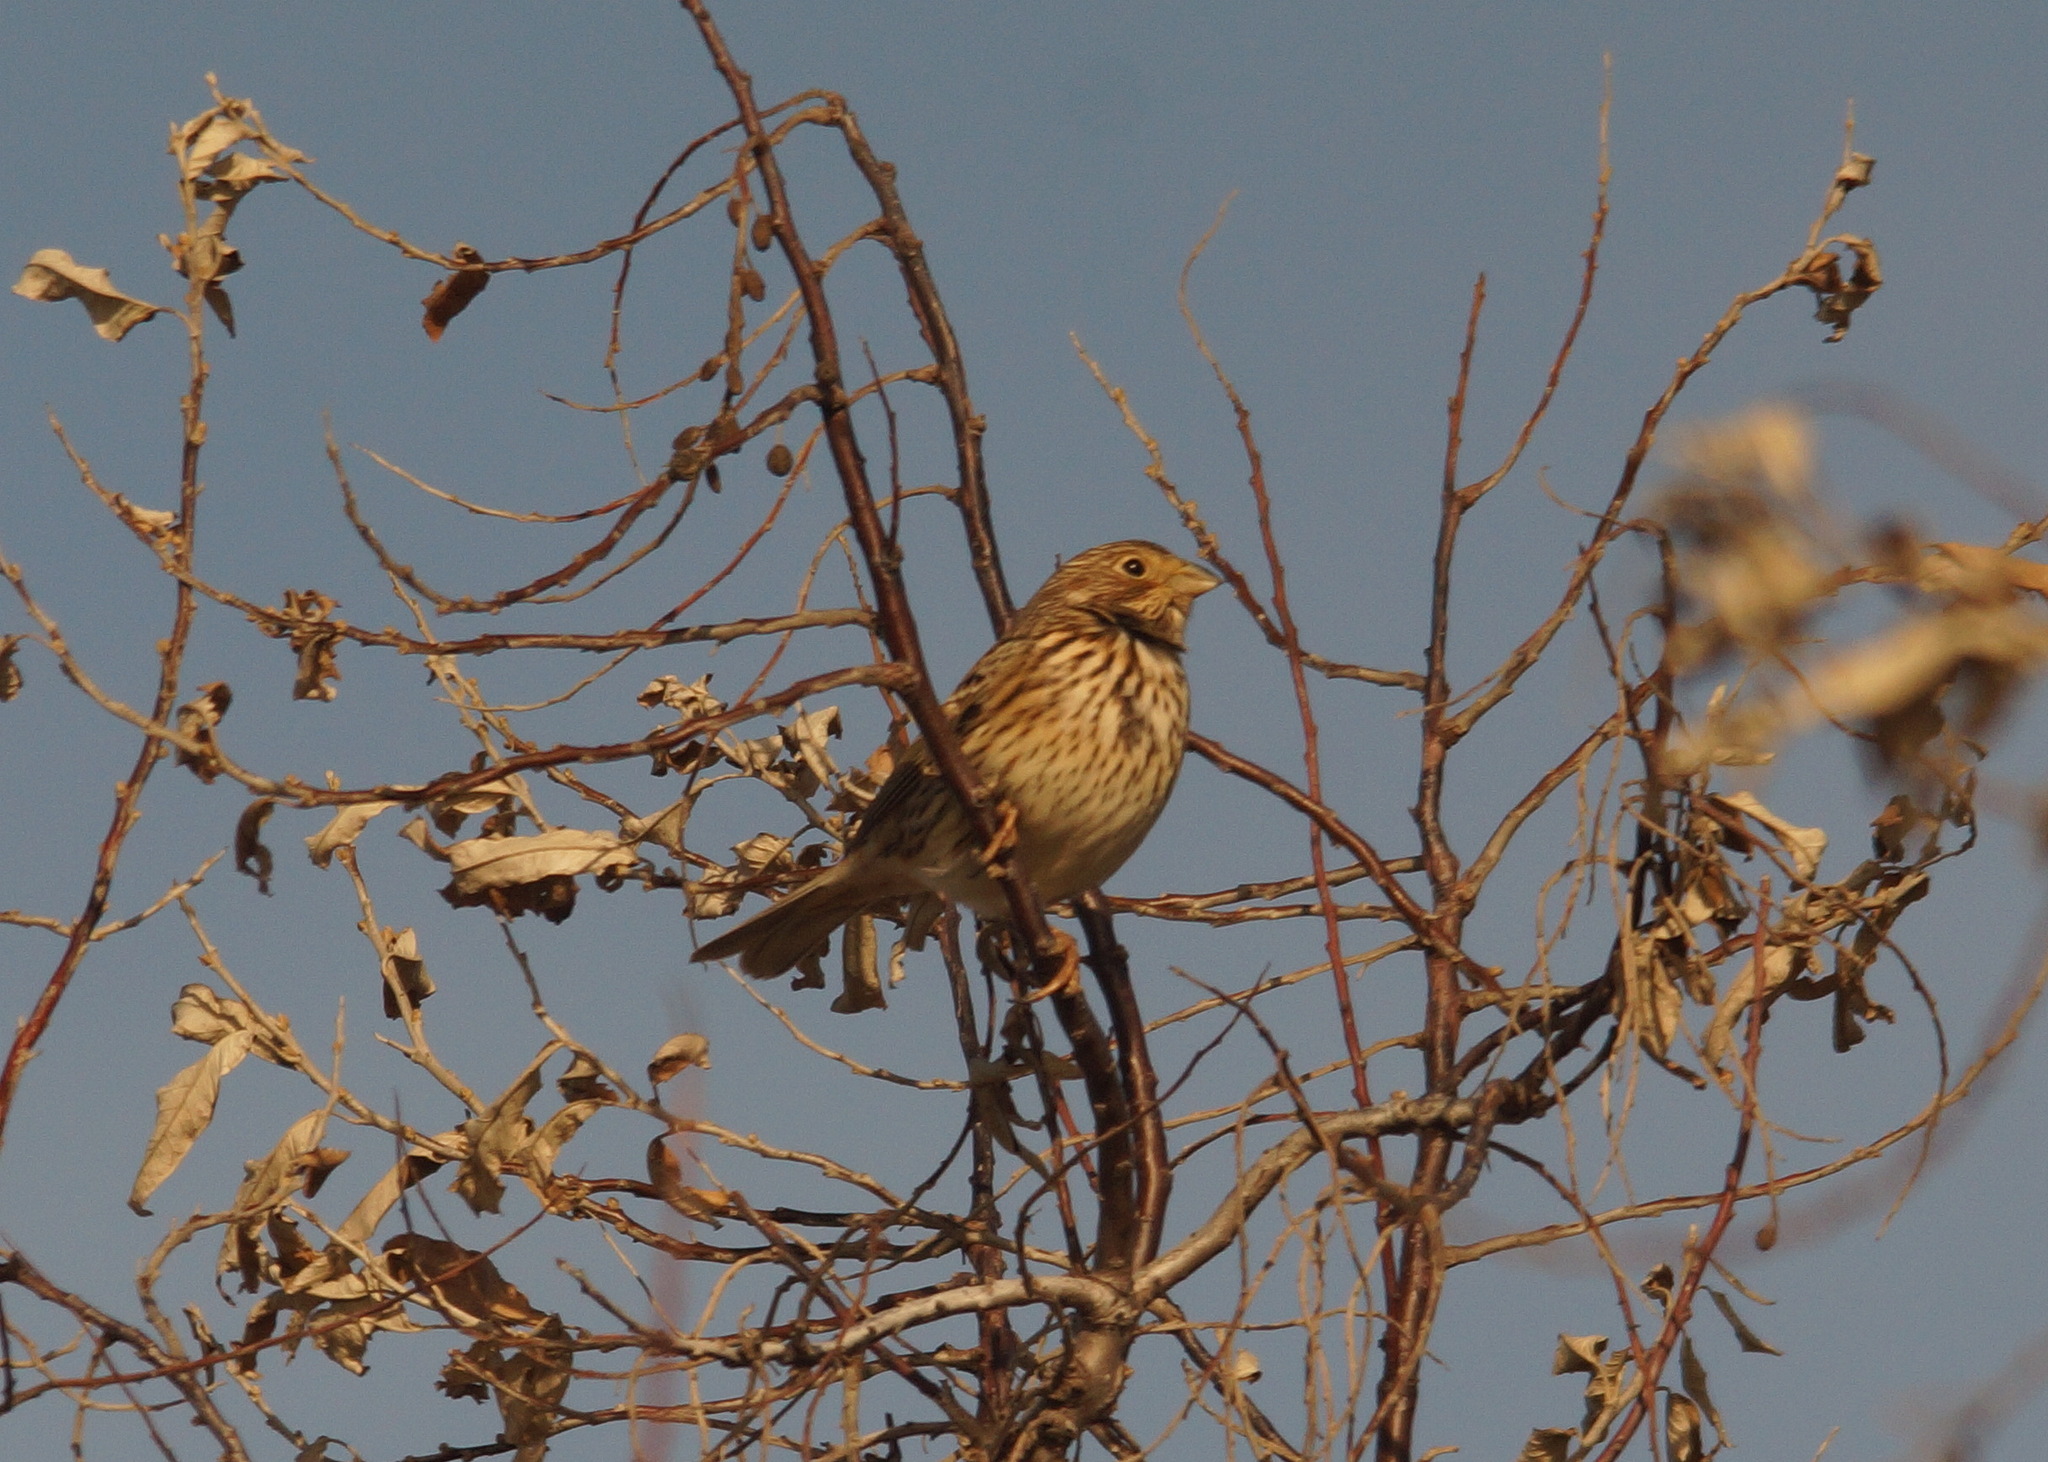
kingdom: Animalia
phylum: Chordata
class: Aves
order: Passeriformes
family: Emberizidae
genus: Emberiza
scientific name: Emberiza calandra
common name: Corn bunting
